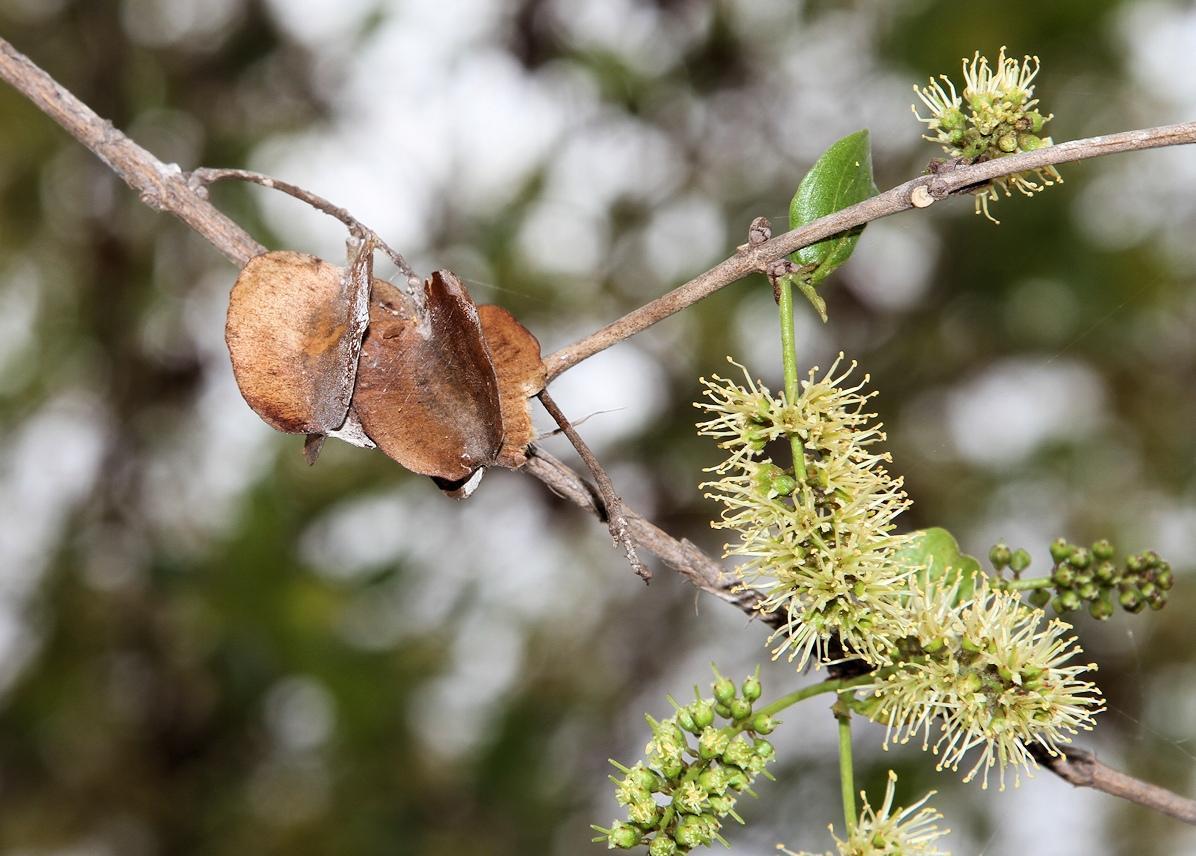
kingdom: Plantae
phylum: Tracheophyta
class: Magnoliopsida
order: Myrtales
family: Combretaceae
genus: Combretum
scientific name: Combretum apiculatum
